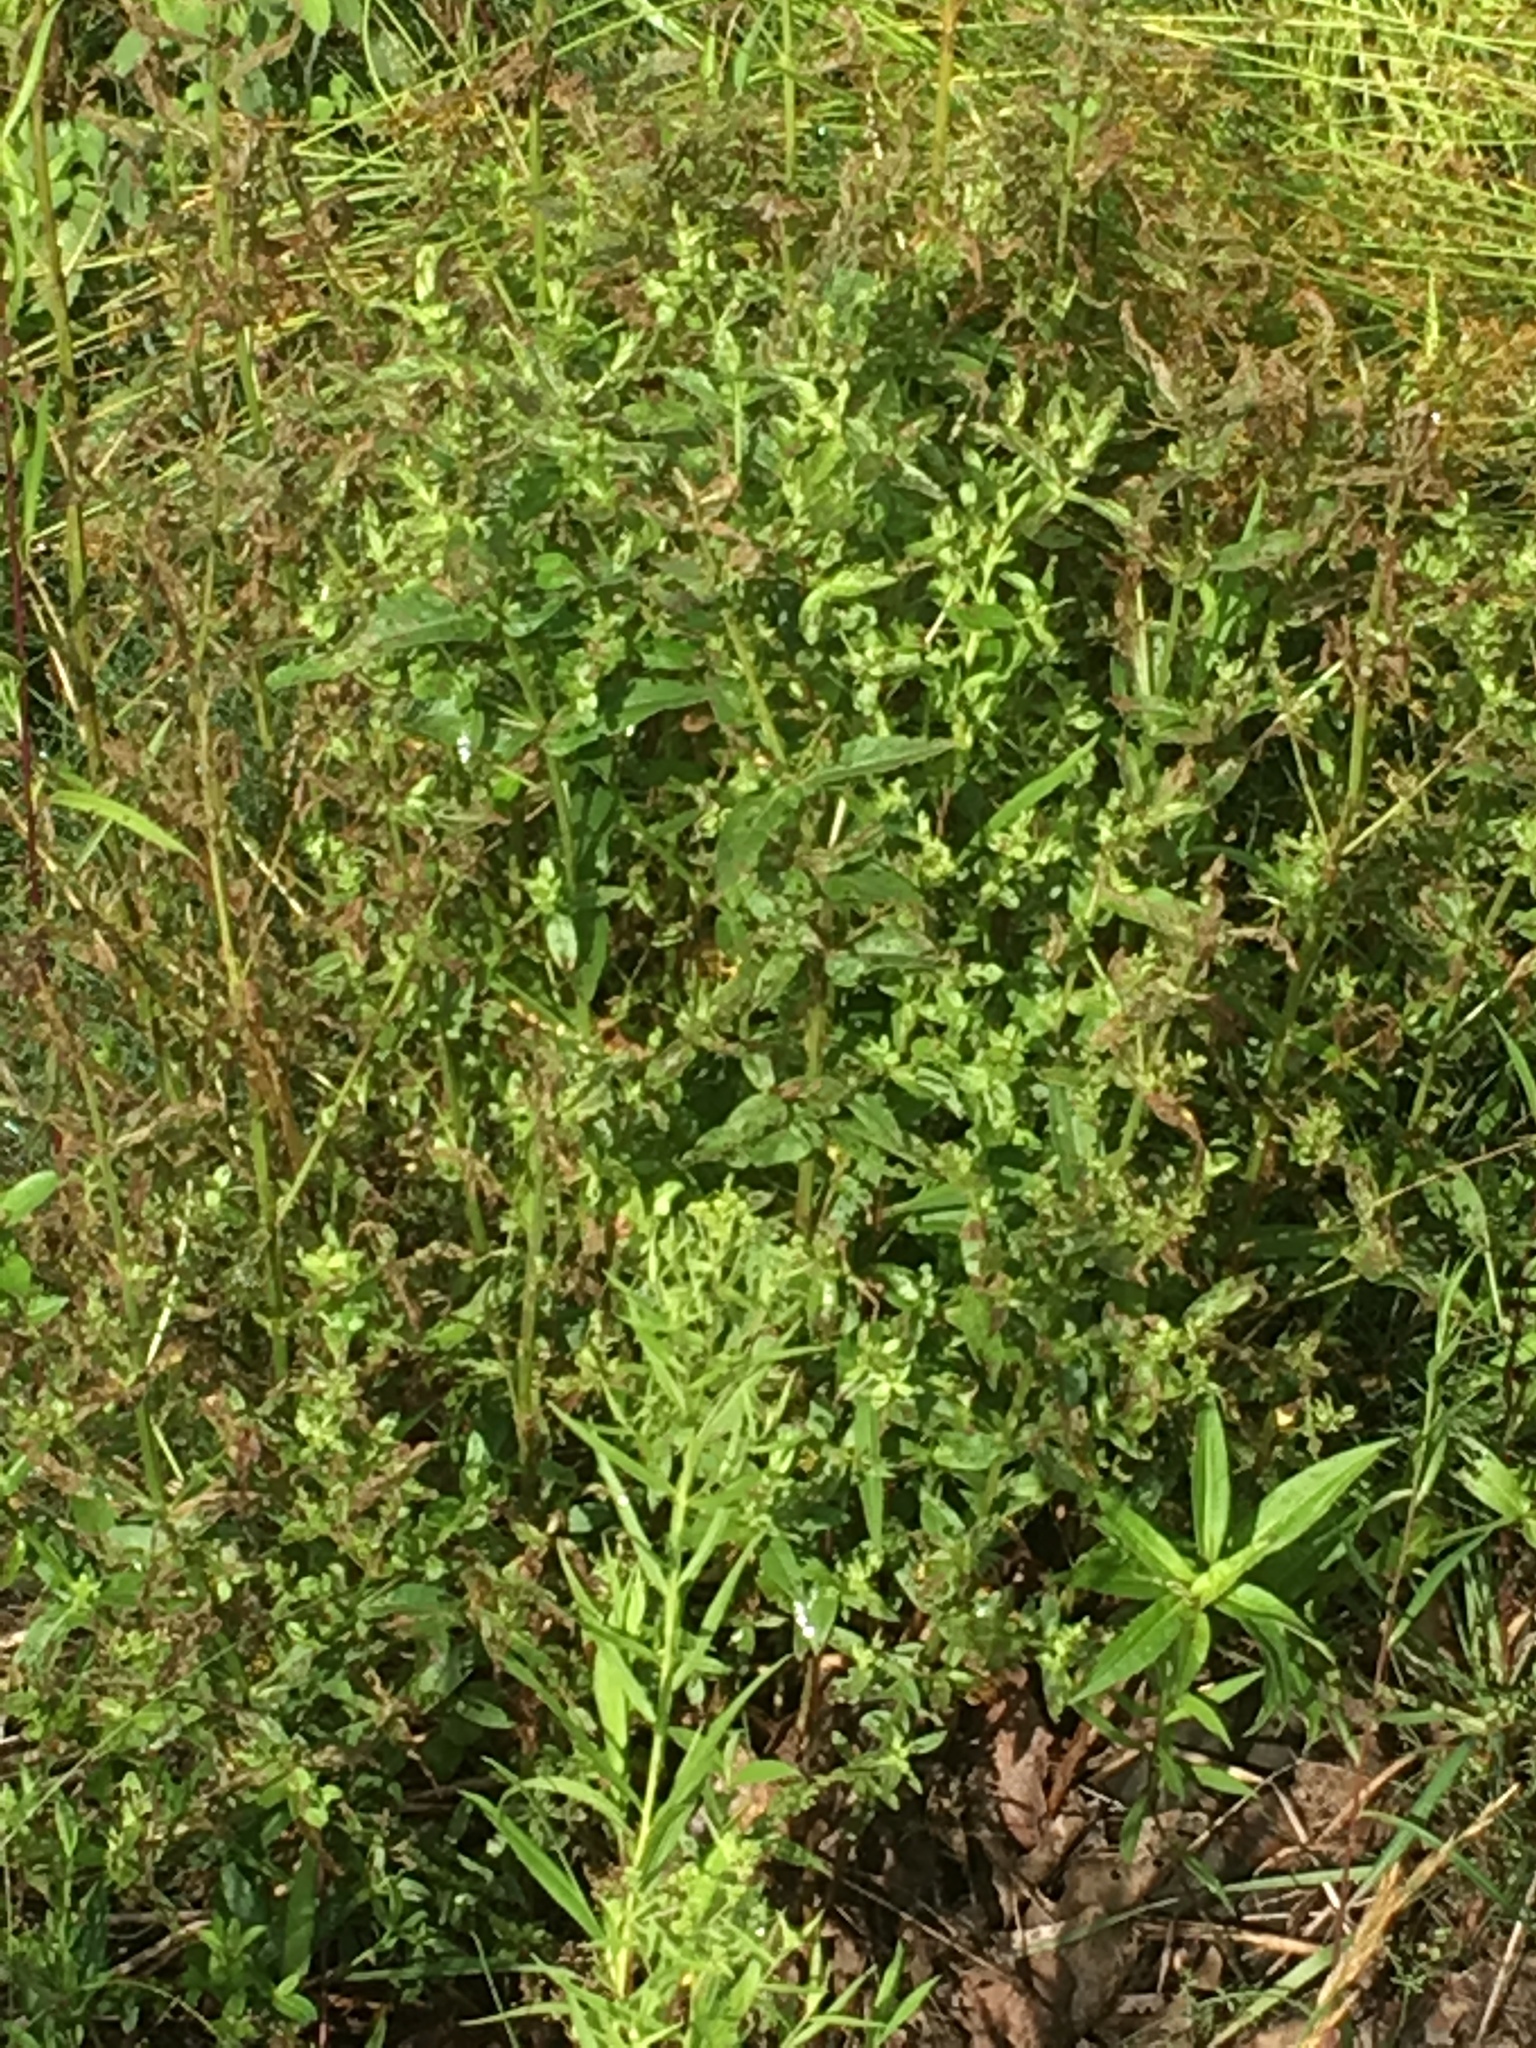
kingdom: Plantae
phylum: Tracheophyta
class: Magnoliopsida
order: Myrtales
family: Lythraceae
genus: Lythrum
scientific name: Lythrum salicaria
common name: Purple loosestrife
